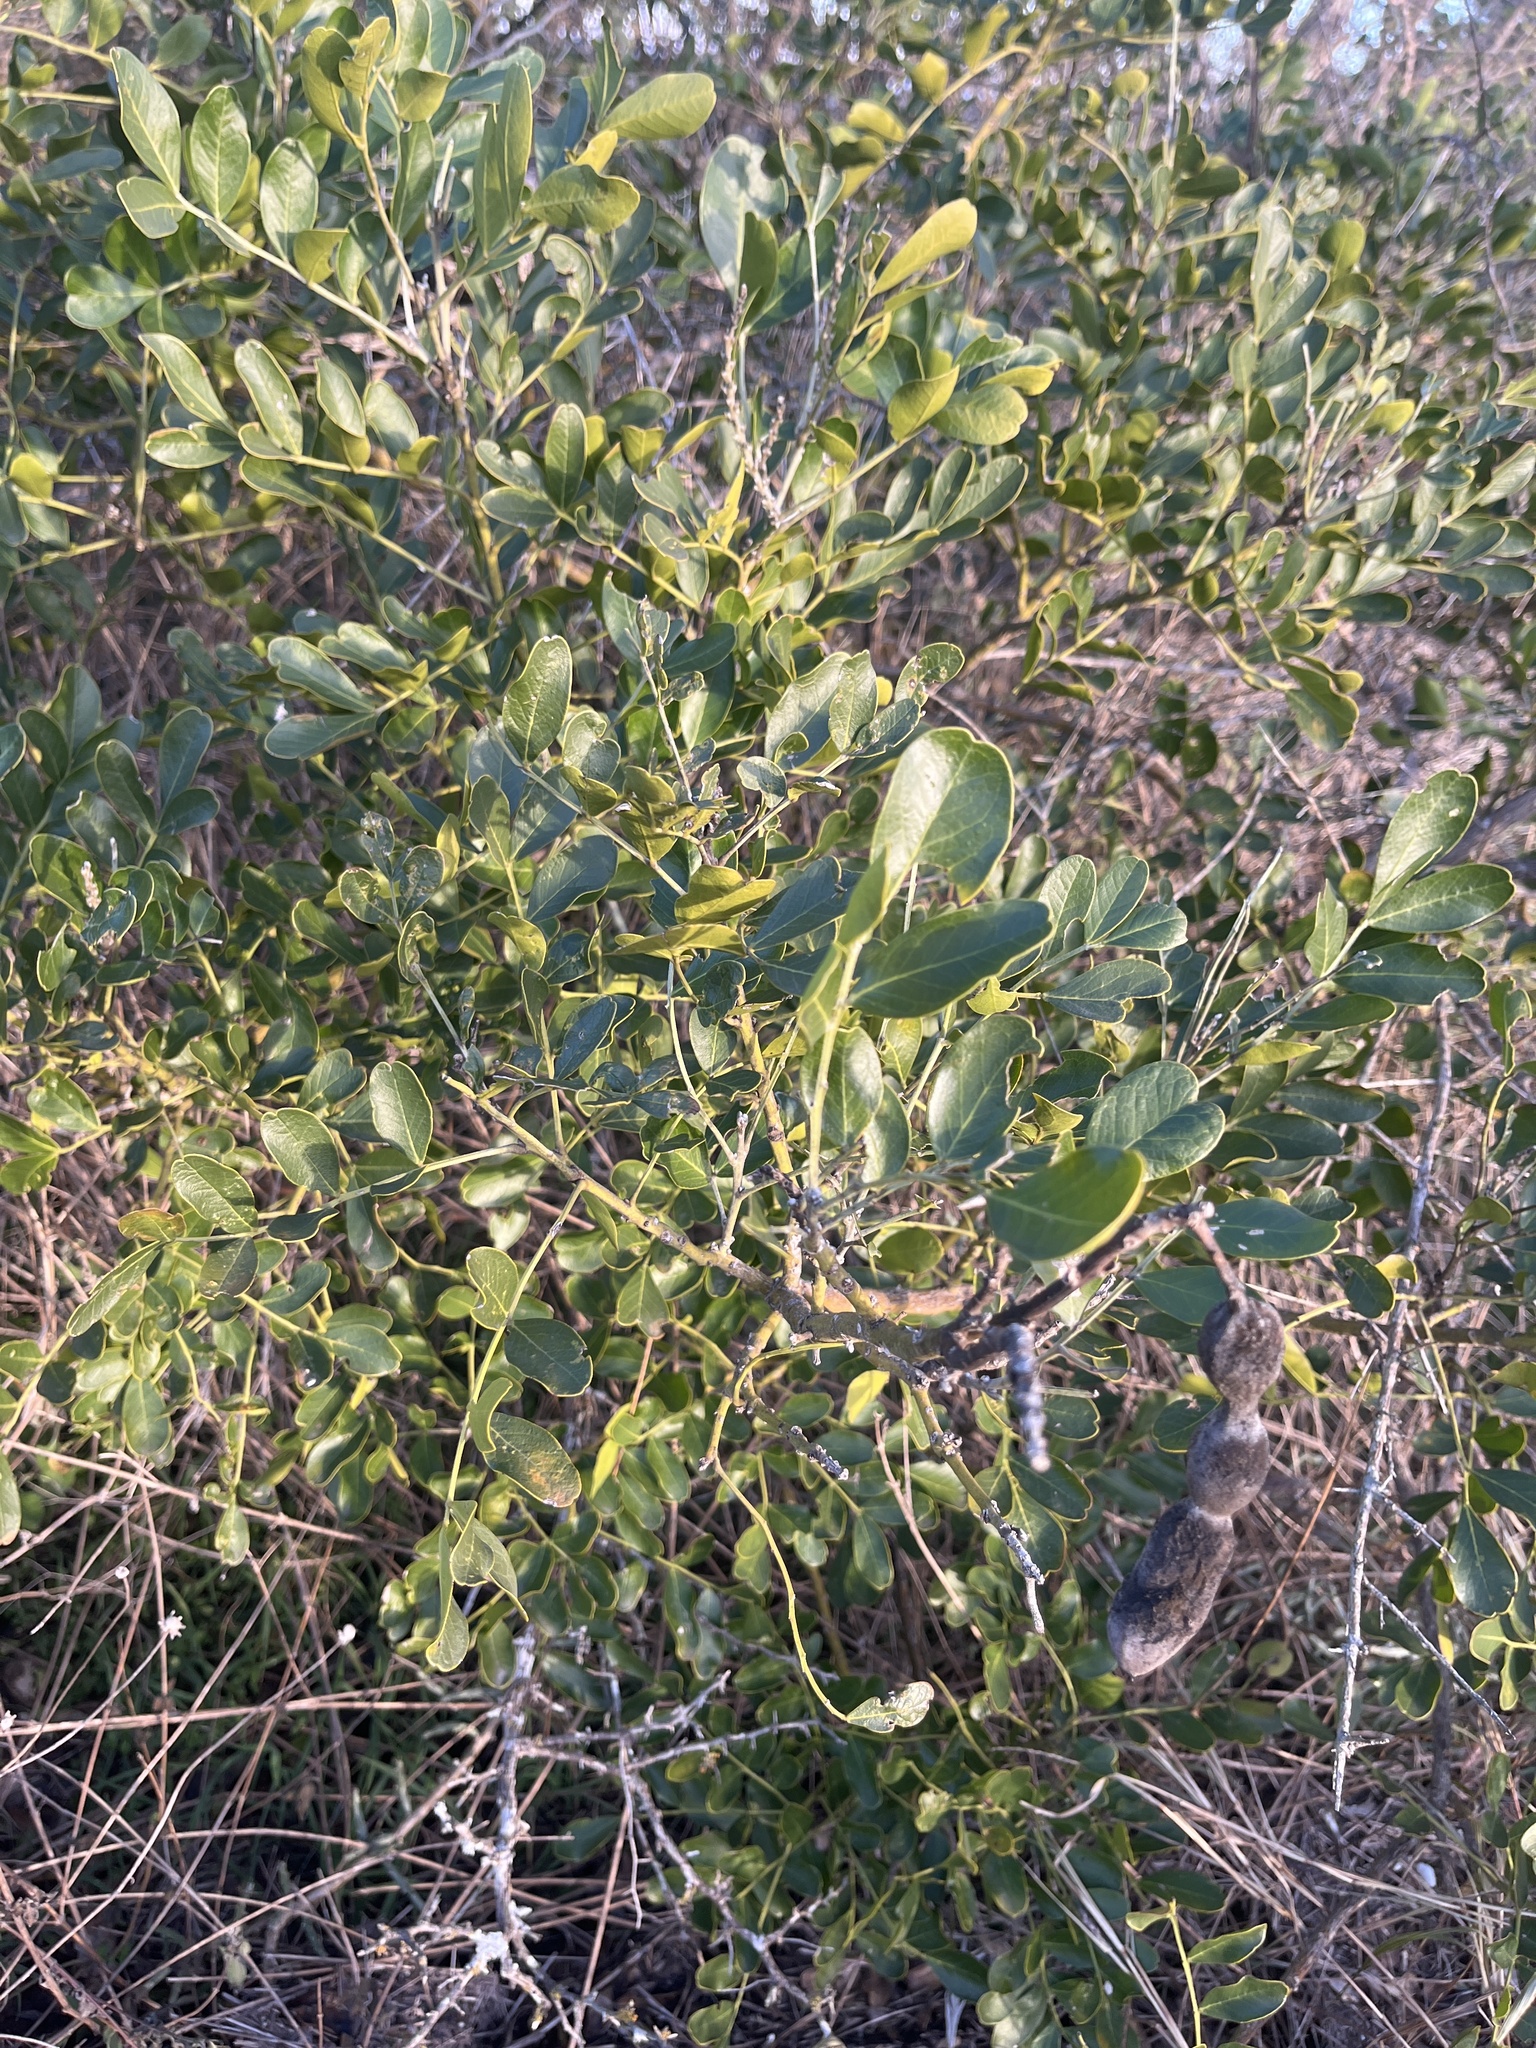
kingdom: Plantae
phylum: Tracheophyta
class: Magnoliopsida
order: Fabales
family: Fabaceae
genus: Dermatophyllum
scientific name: Dermatophyllum secundiflorum
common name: Texas-mountain-laurel
